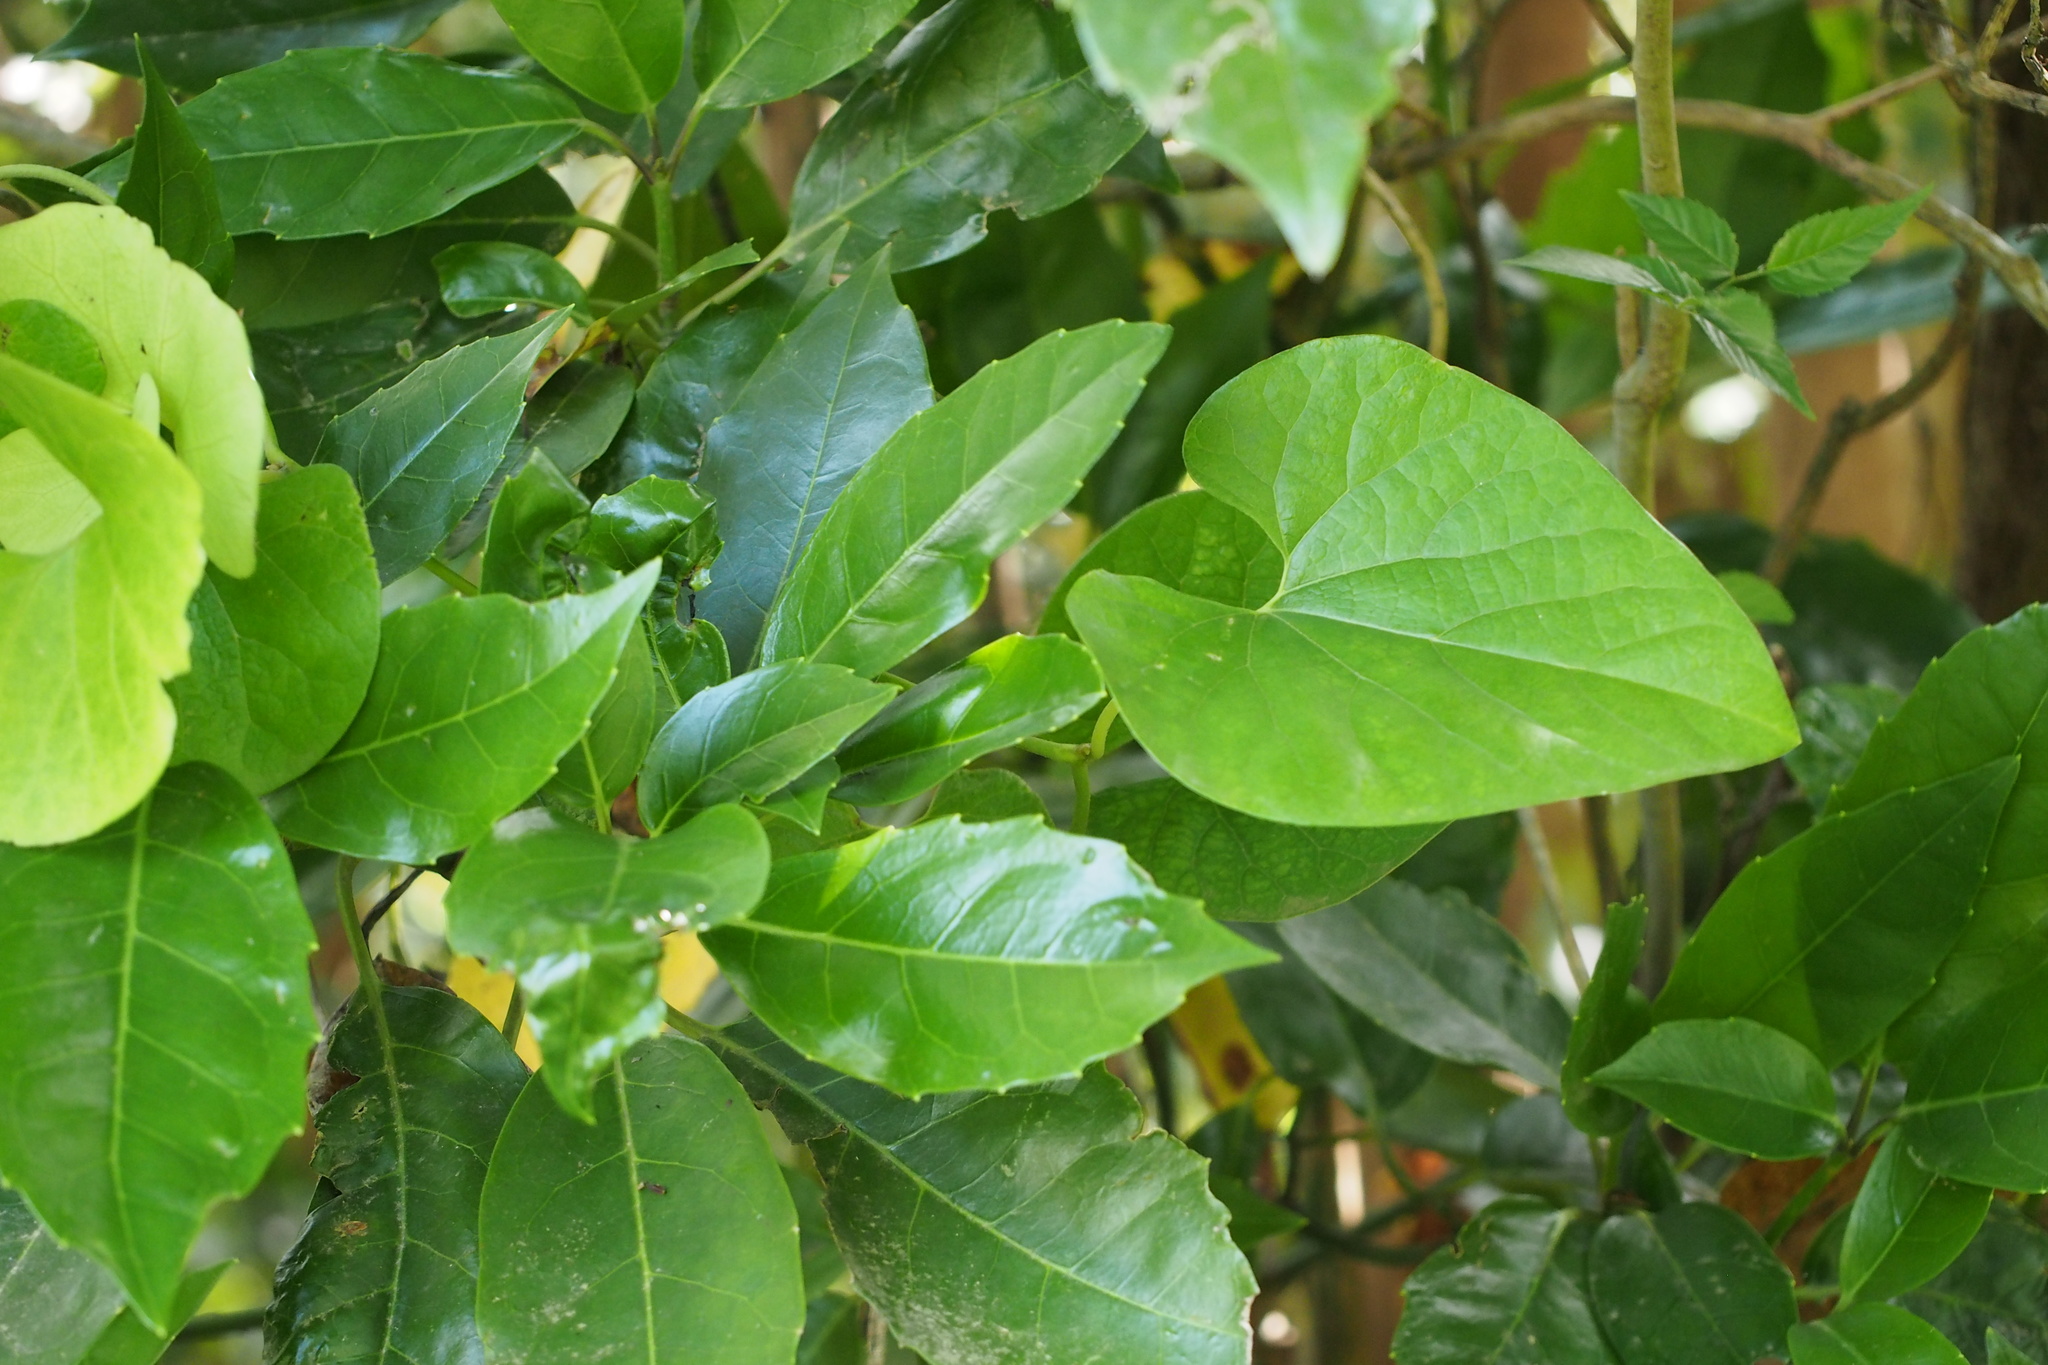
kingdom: Plantae
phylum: Tracheophyta
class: Magnoliopsida
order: Piperales
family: Aristolochiaceae
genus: Isotrema
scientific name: Isotrema kaempferi
